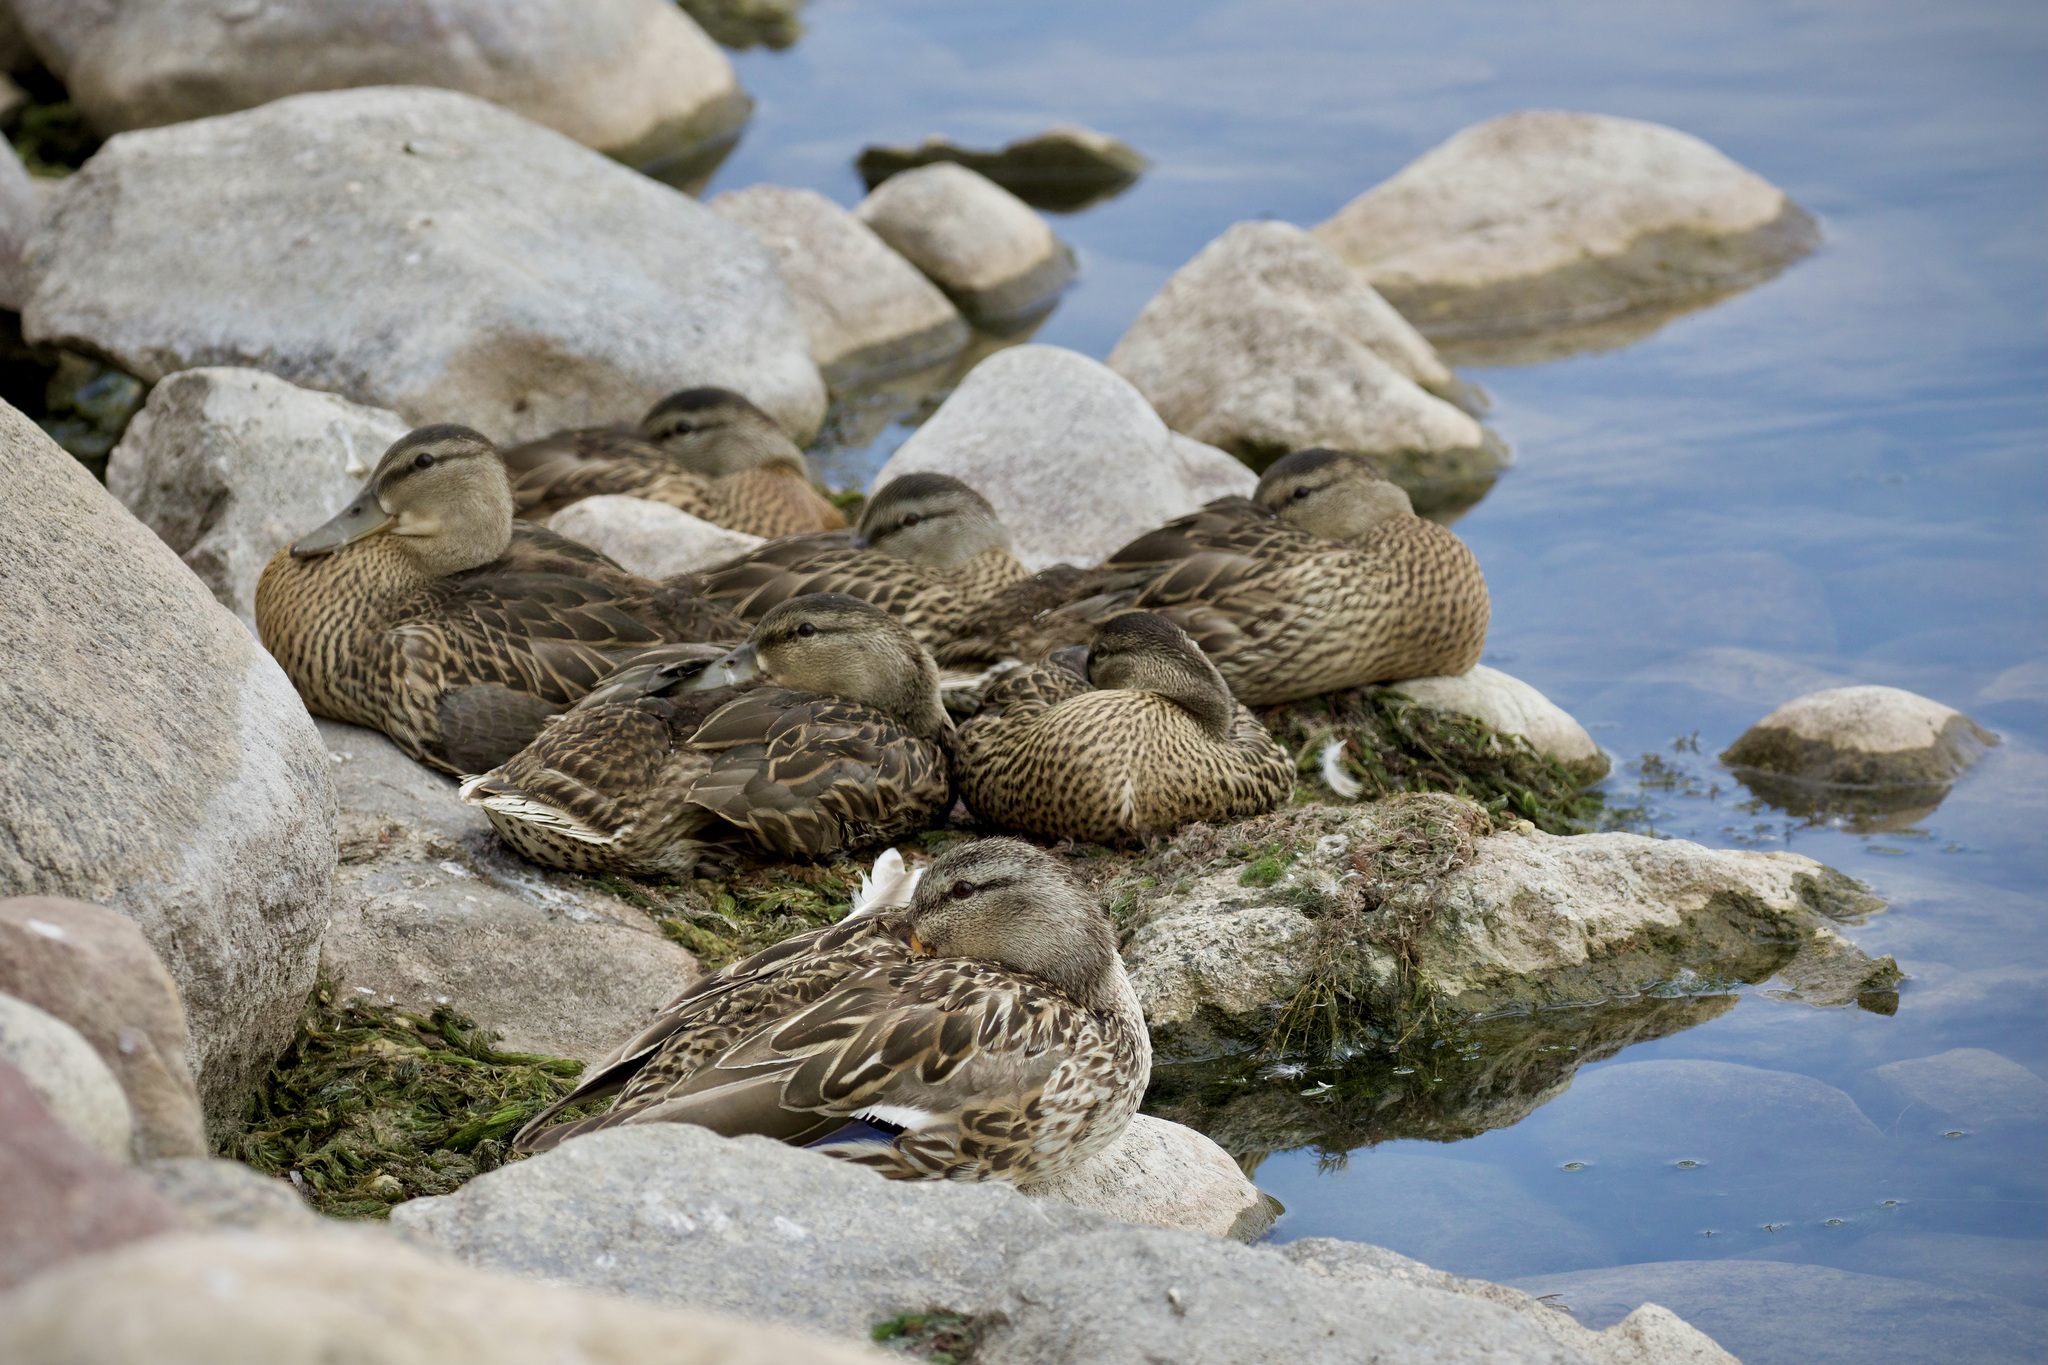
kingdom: Animalia
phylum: Chordata
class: Aves
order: Anseriformes
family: Anatidae
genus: Anas
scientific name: Anas platyrhynchos
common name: Mallard
